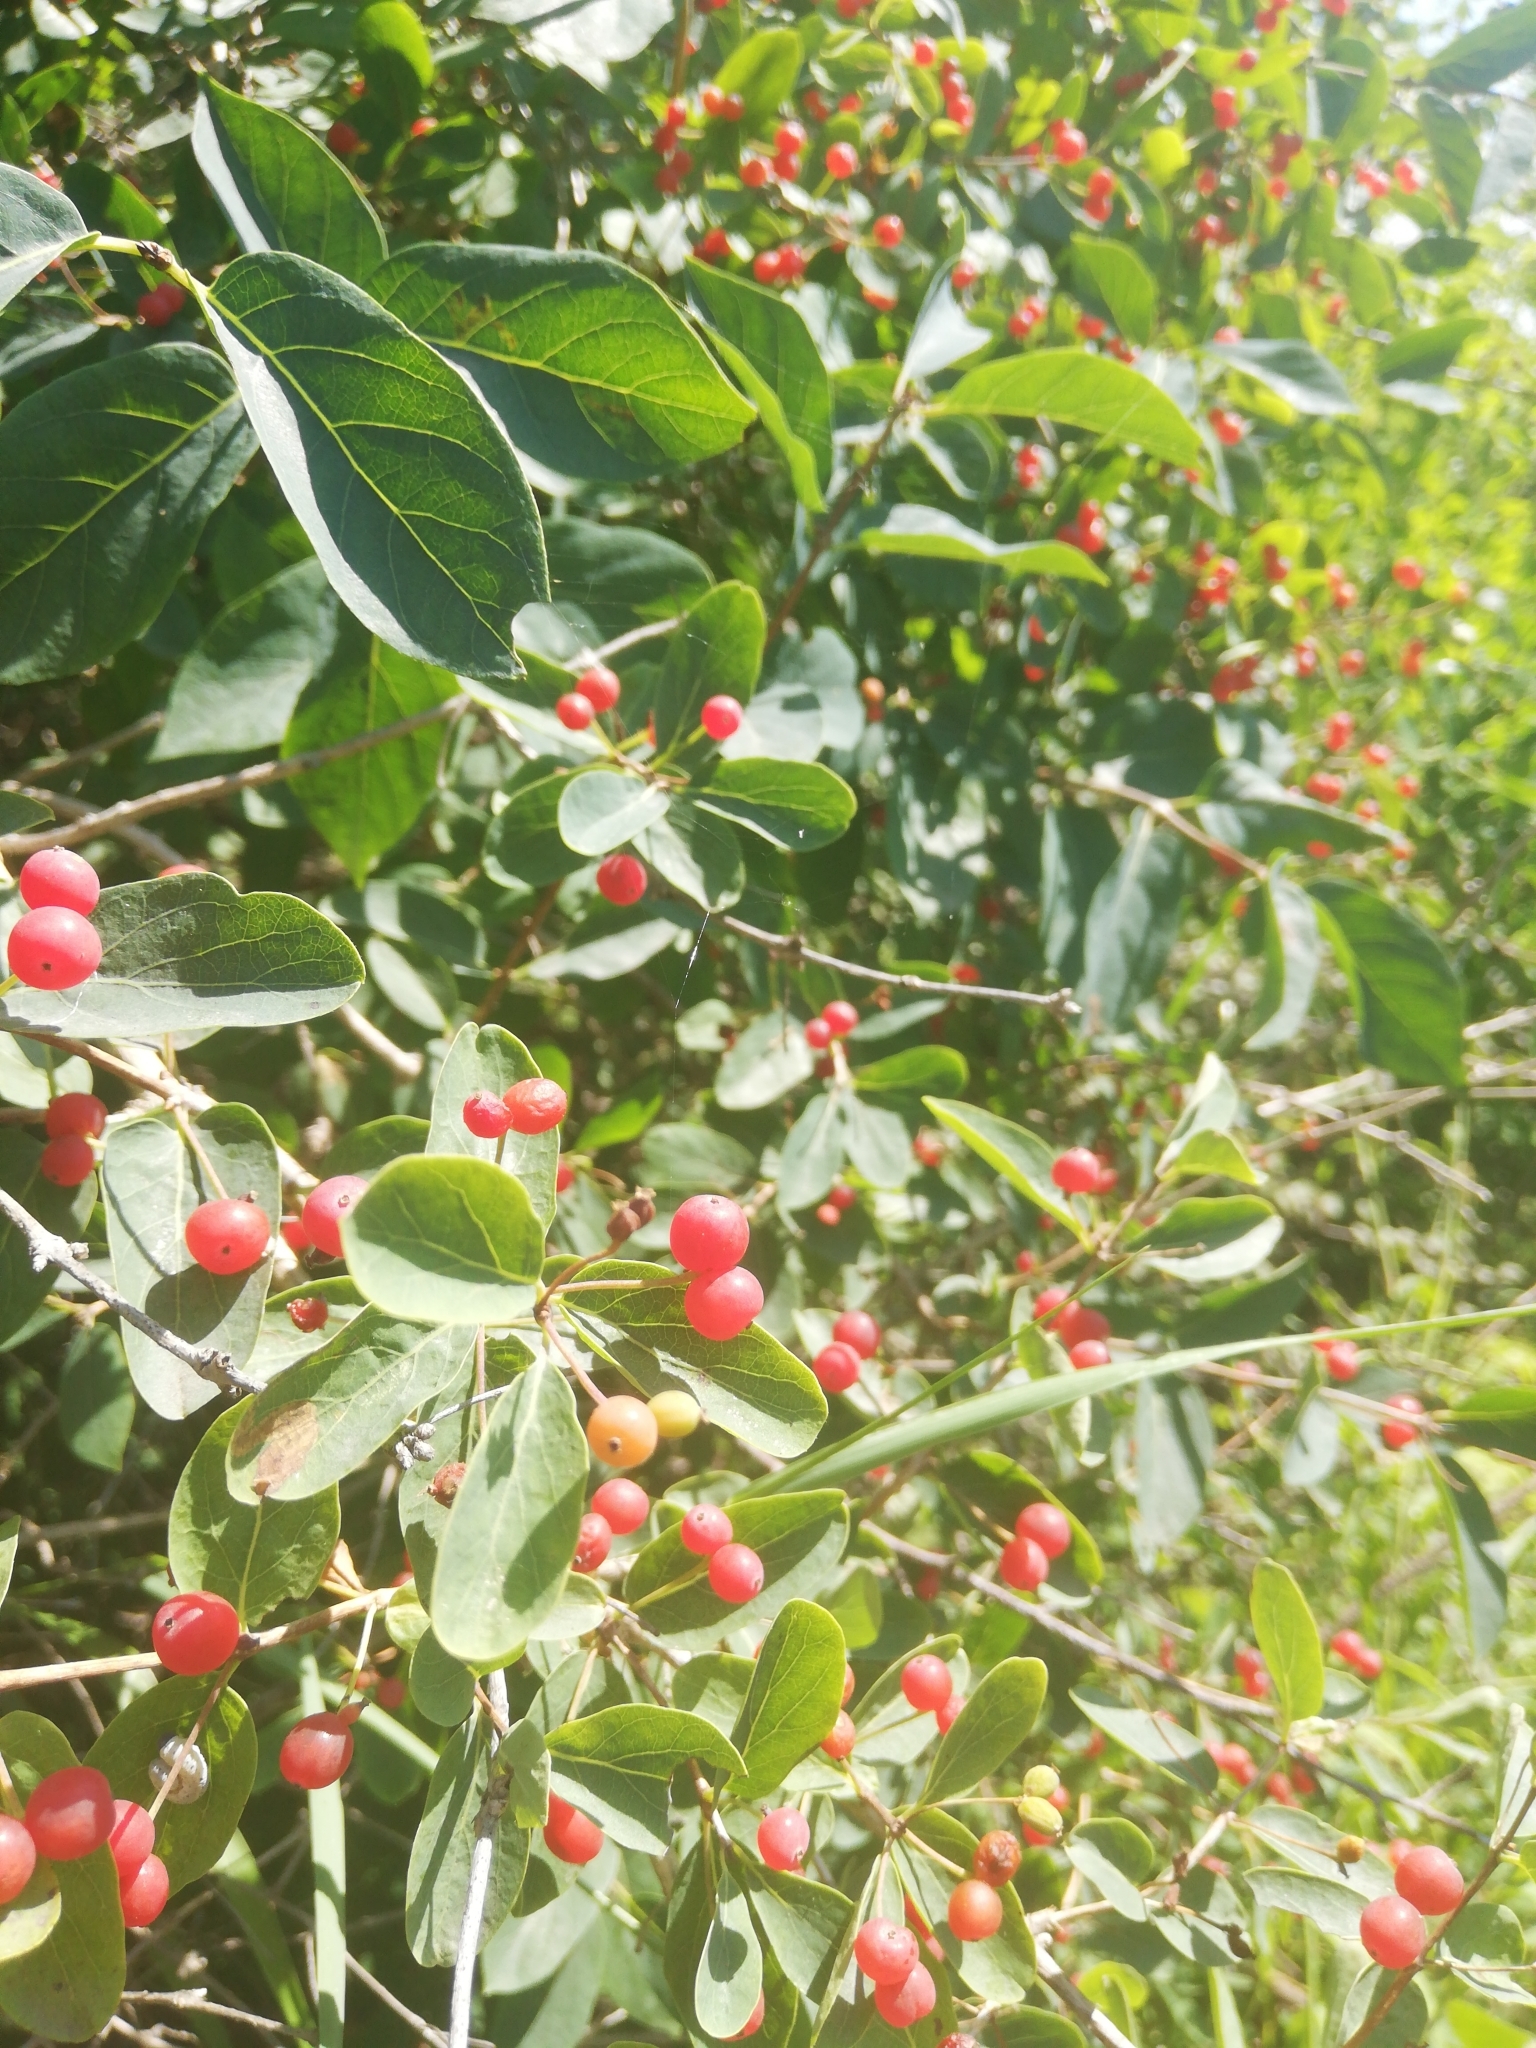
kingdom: Plantae
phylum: Tracheophyta
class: Magnoliopsida
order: Dipsacales
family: Caprifoliaceae
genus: Lonicera
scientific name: Lonicera tatarica
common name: Tatarian honeysuckle
